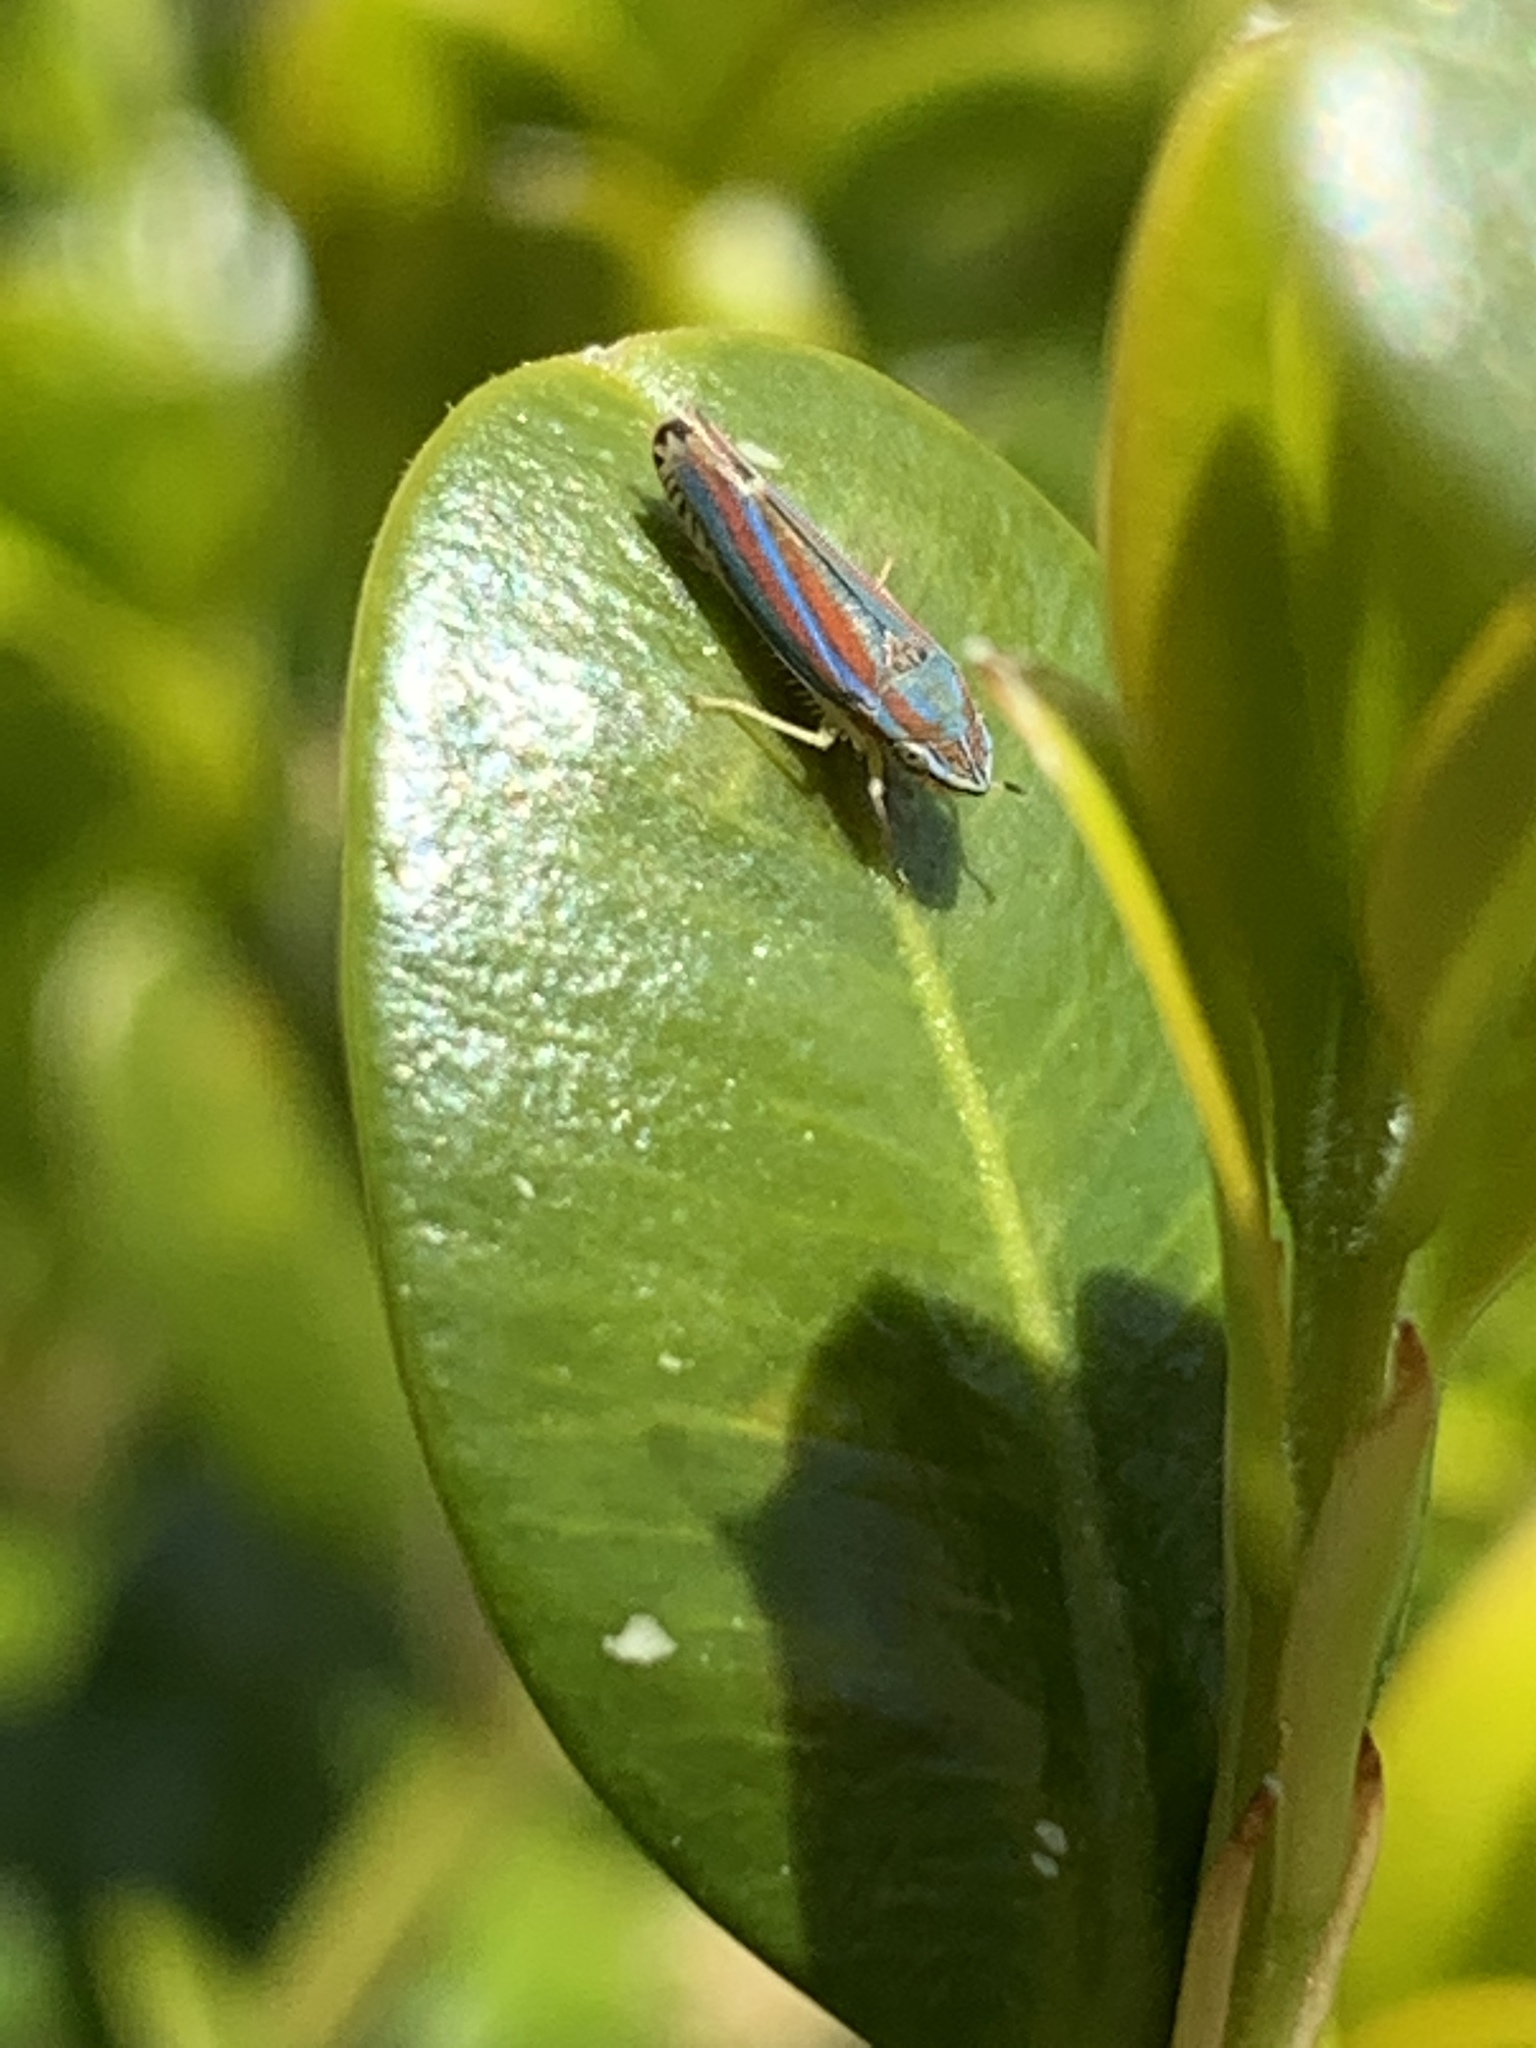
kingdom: Animalia
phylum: Arthropoda
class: Insecta
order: Hemiptera
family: Cicadellidae
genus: Graphocephala
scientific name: Graphocephala versuta
